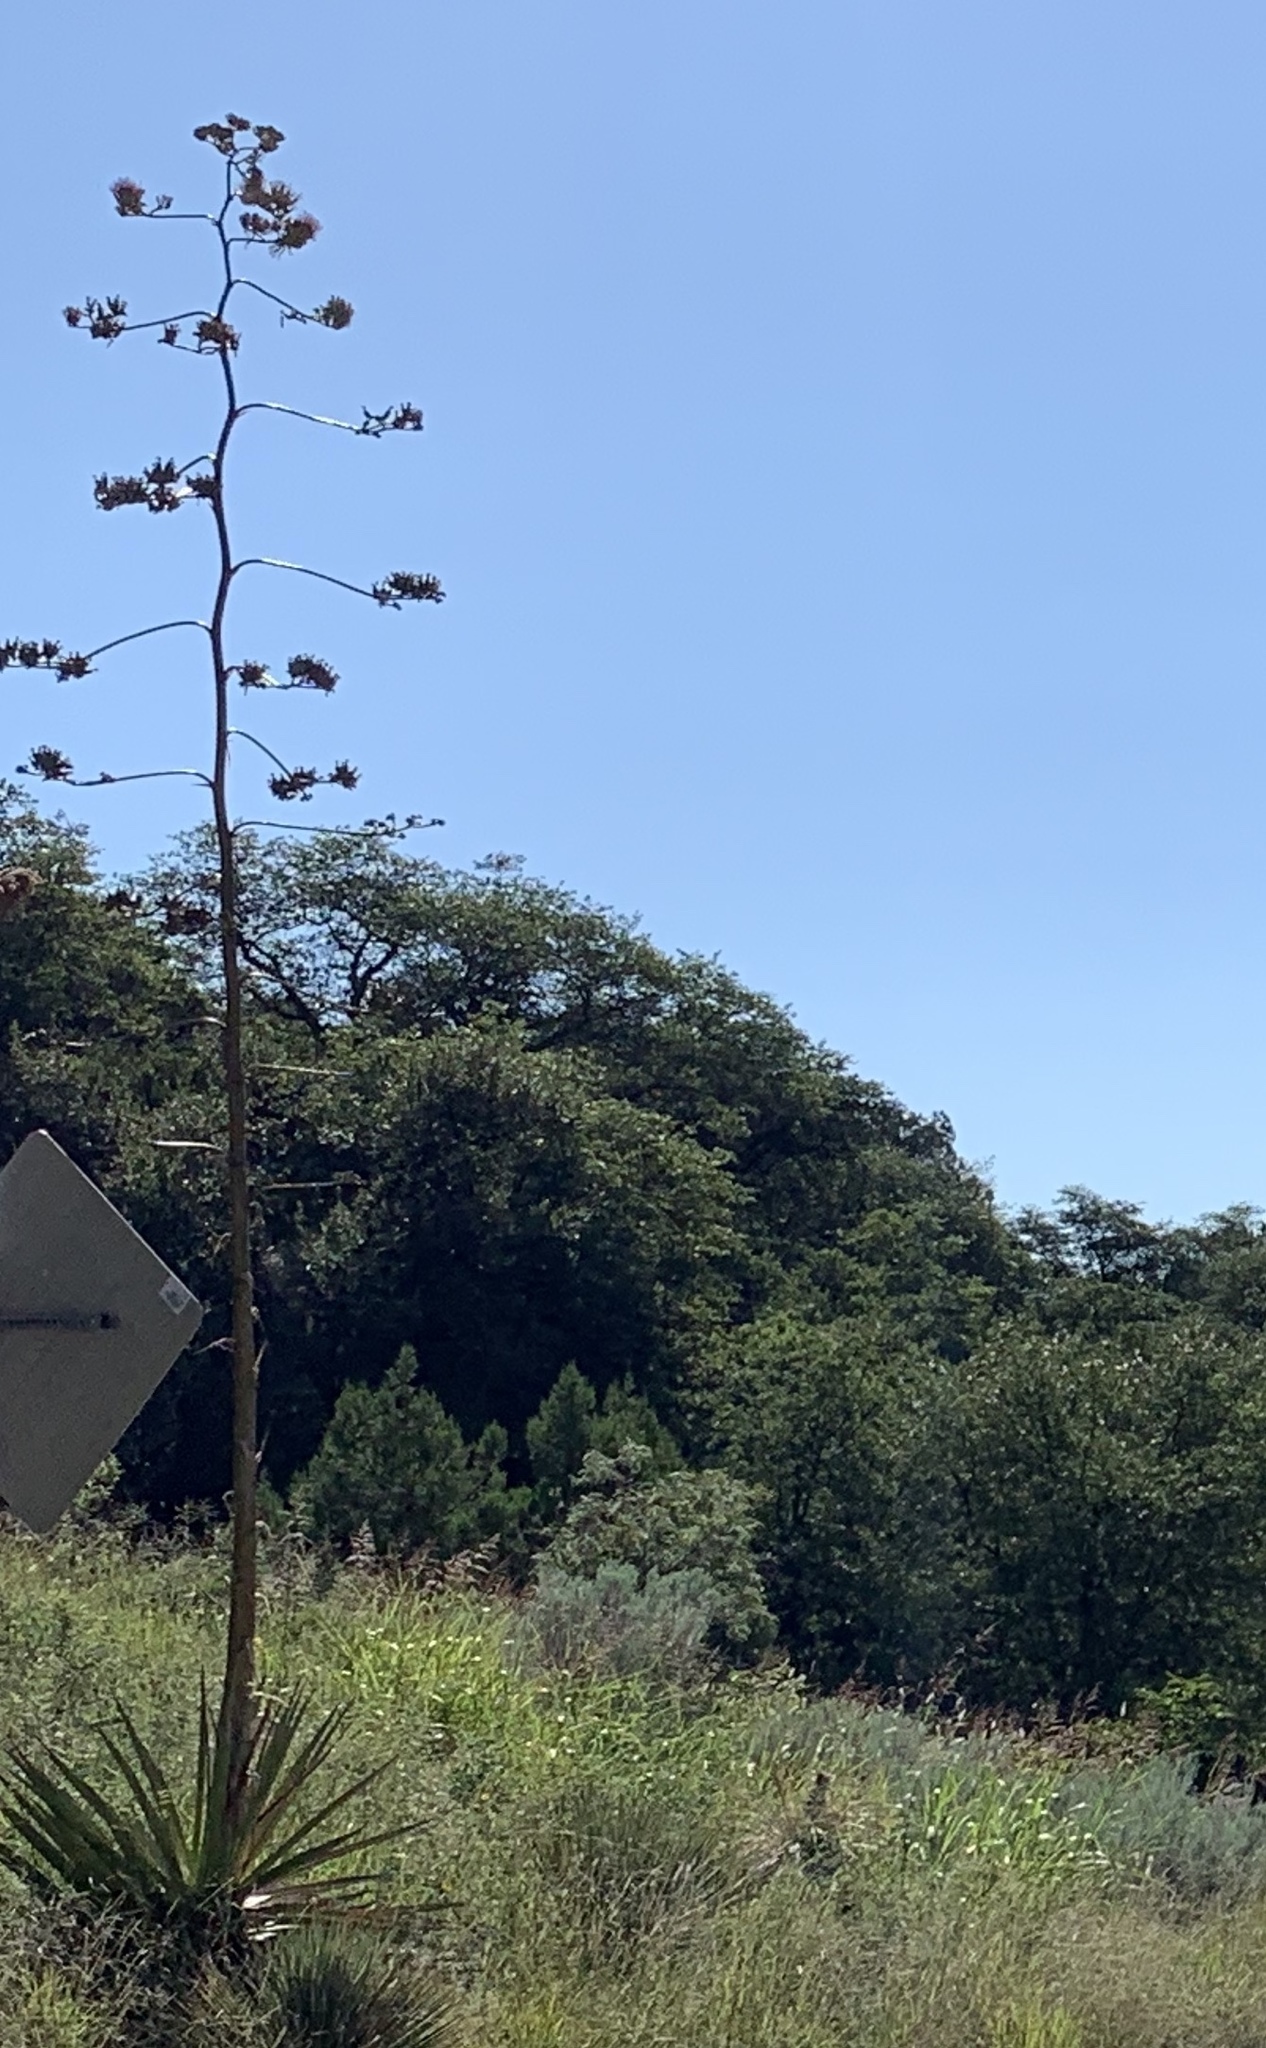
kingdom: Plantae
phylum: Tracheophyta
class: Liliopsida
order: Asparagales
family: Asparagaceae
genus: Agave
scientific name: Agave palmeri
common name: Palmer agave
